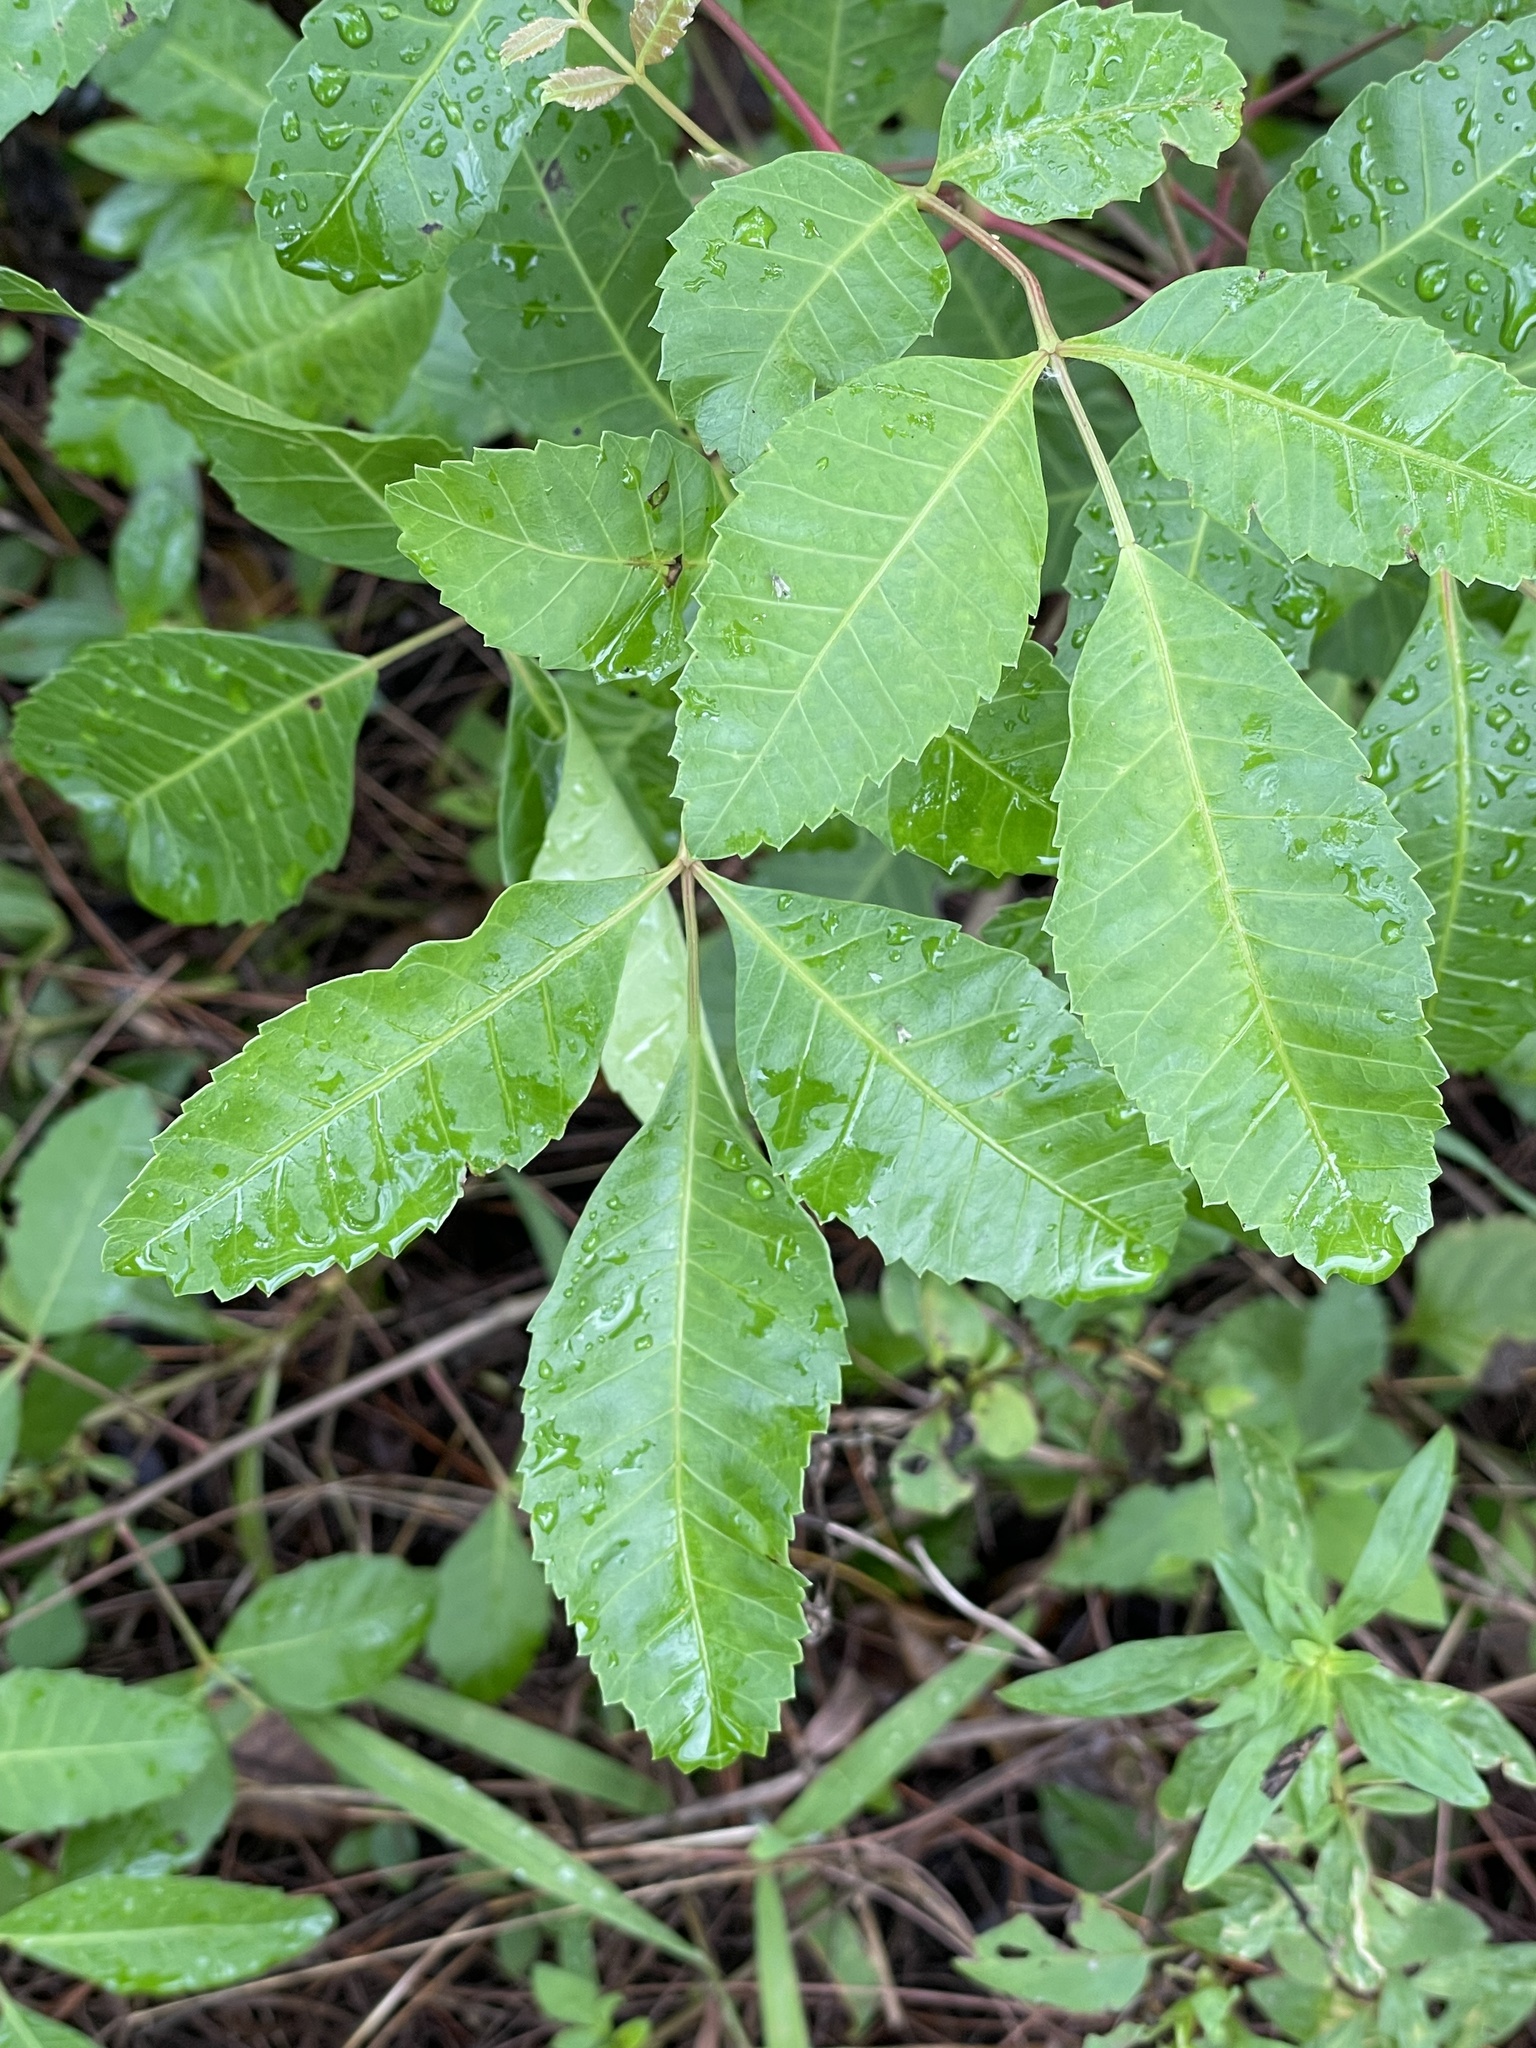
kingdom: Plantae
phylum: Tracheophyta
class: Magnoliopsida
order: Sapindales
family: Anacardiaceae
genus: Schinus
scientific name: Schinus terebinthifolia
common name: Brazilian peppertree
